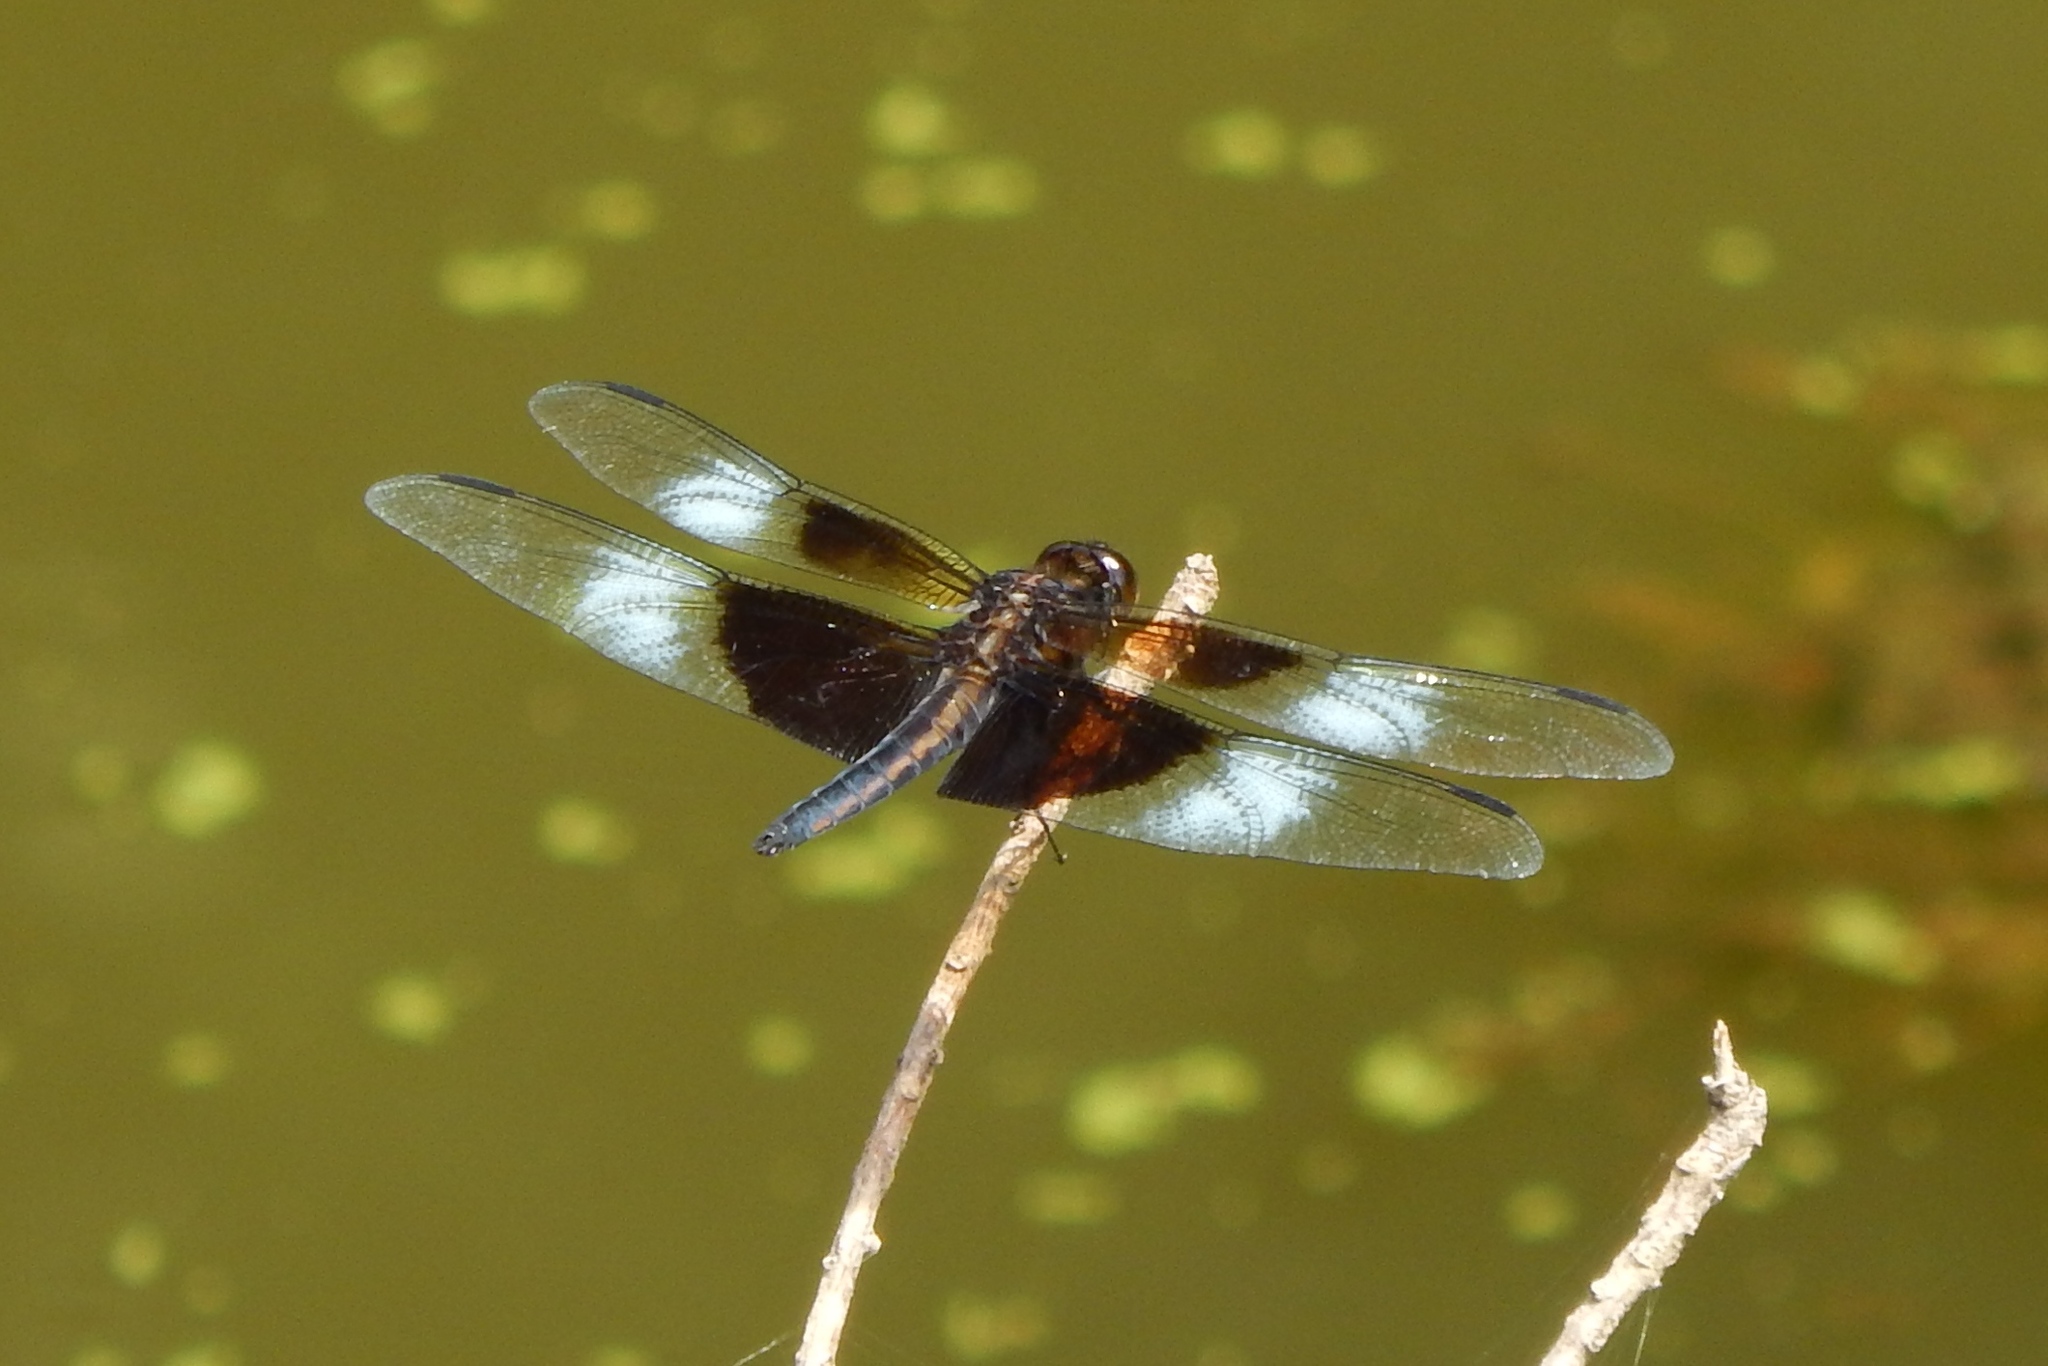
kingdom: Animalia
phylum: Arthropoda
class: Insecta
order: Odonata
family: Libellulidae
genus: Libellula
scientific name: Libellula luctuosa
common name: Widow skimmer
